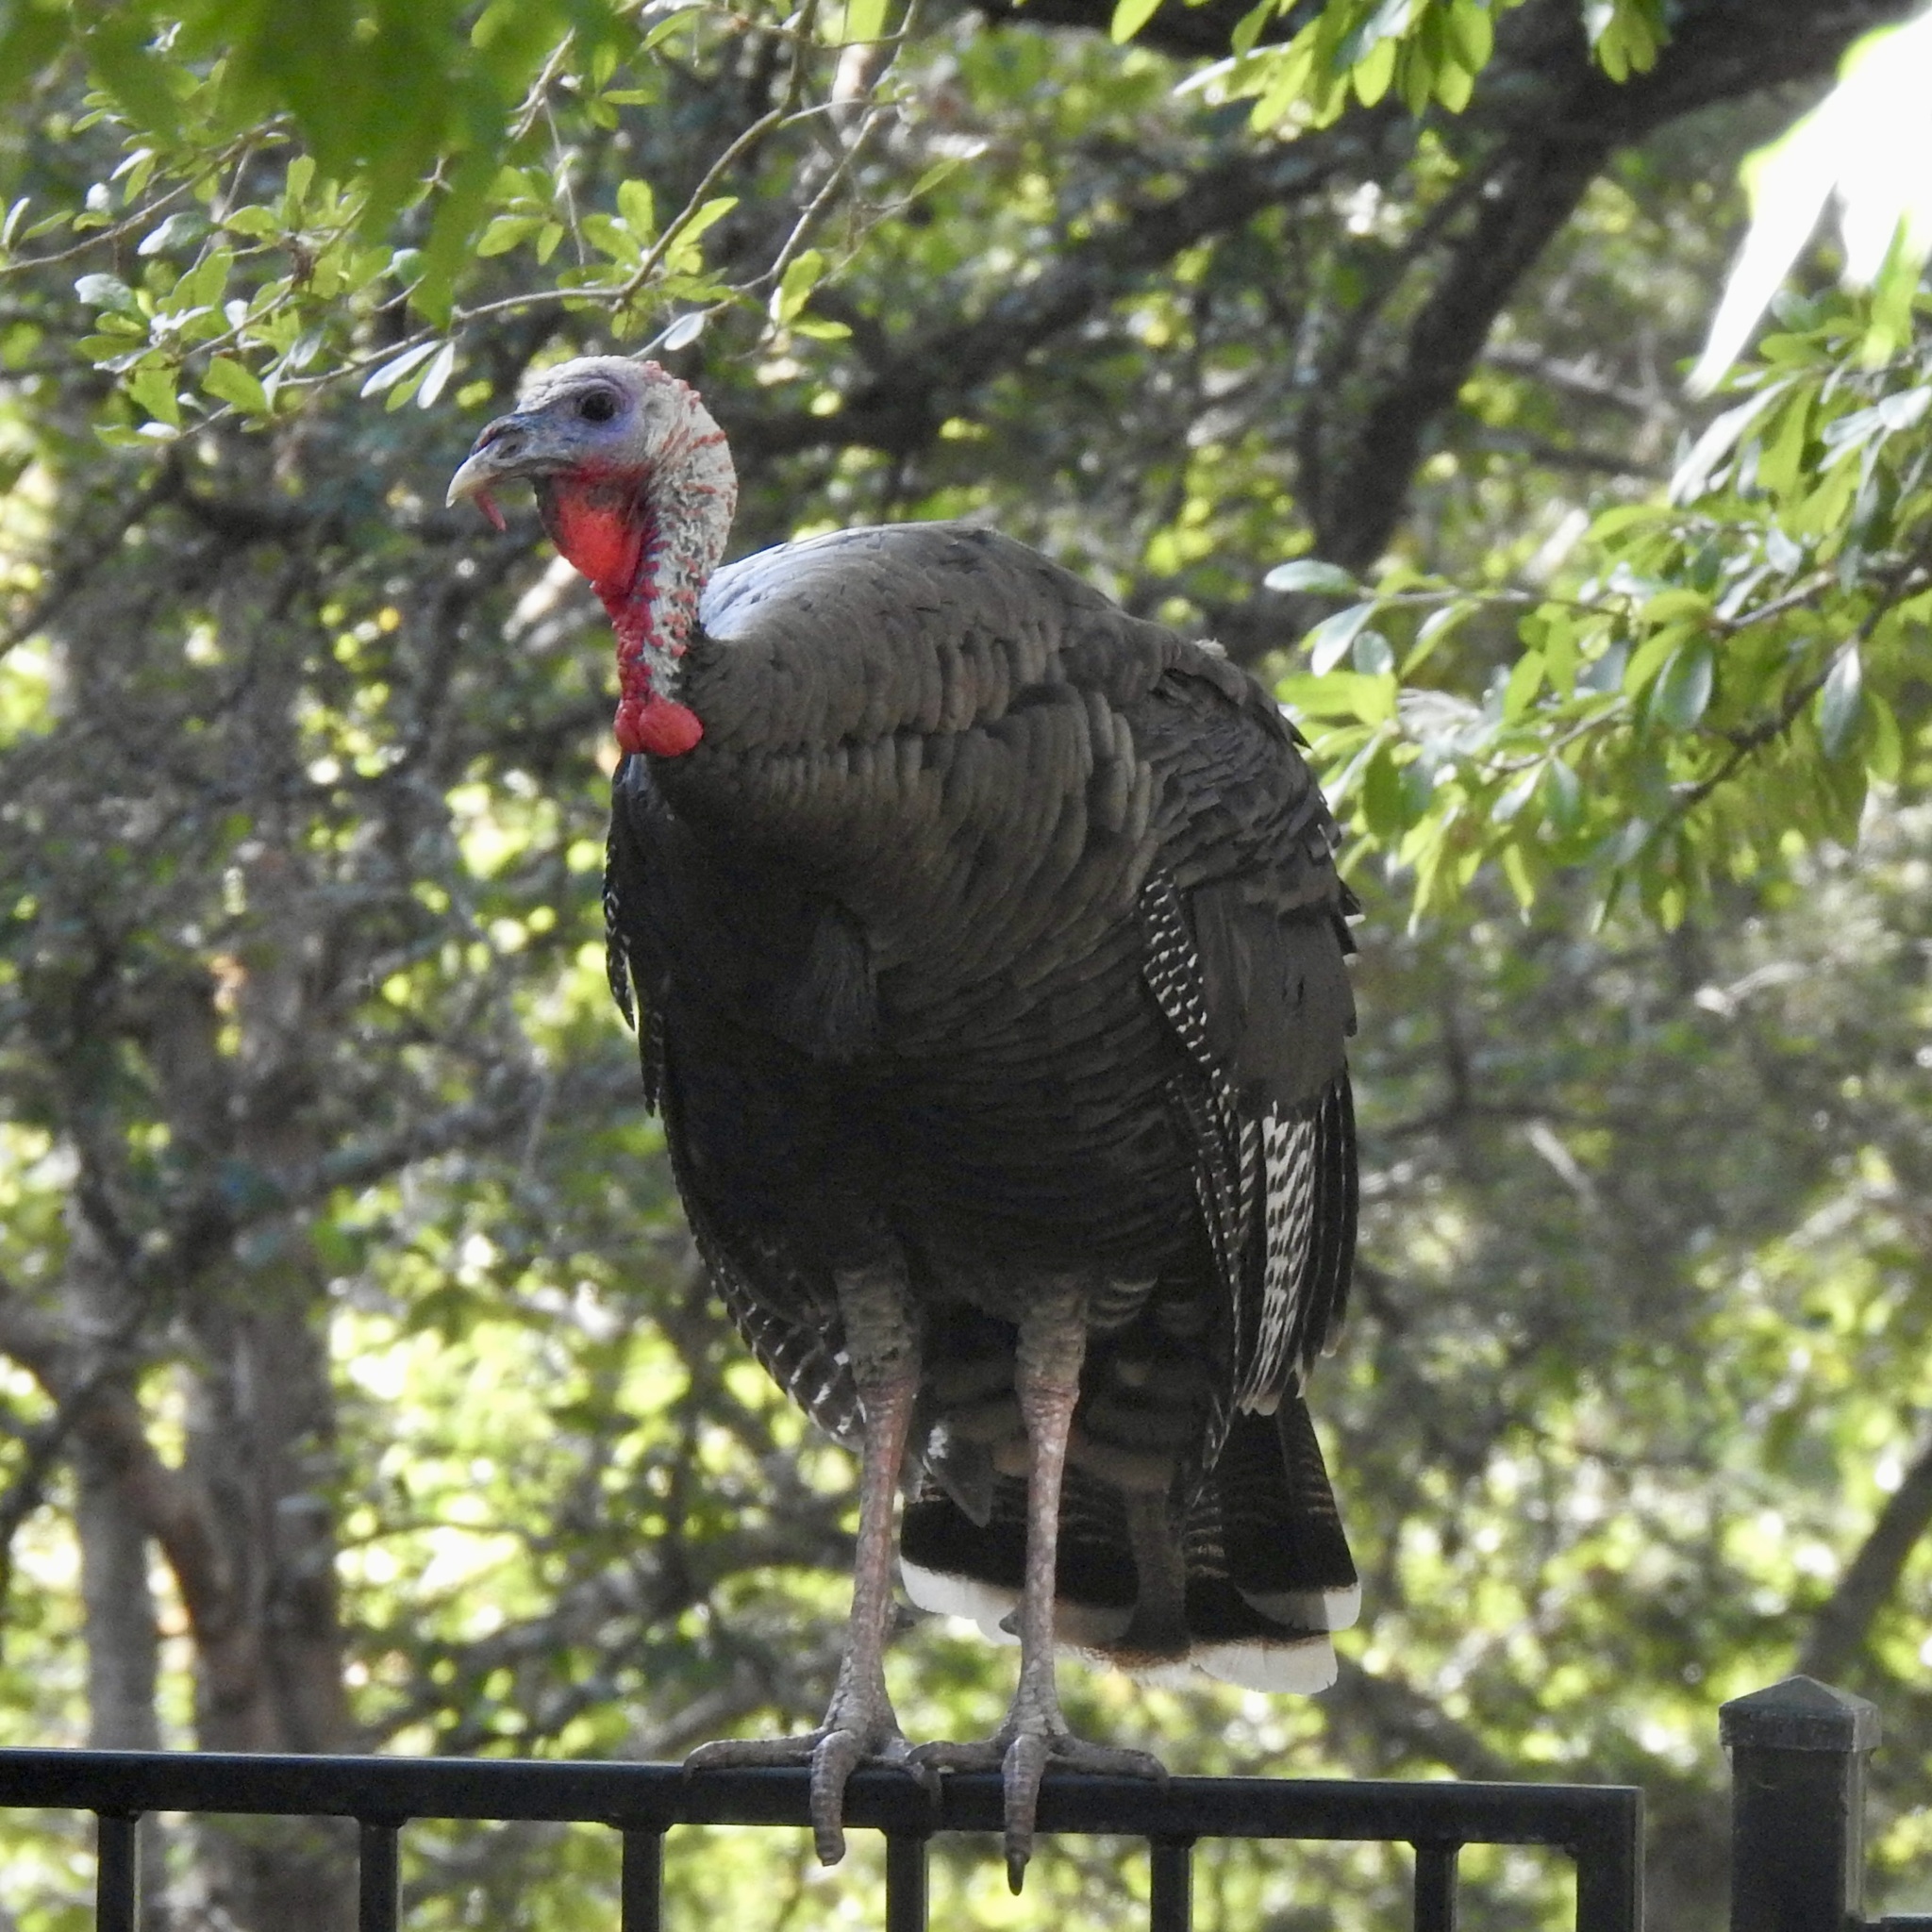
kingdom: Animalia
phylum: Chordata
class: Aves
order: Galliformes
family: Phasianidae
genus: Meleagris
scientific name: Meleagris gallopavo
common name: Wild turkey
